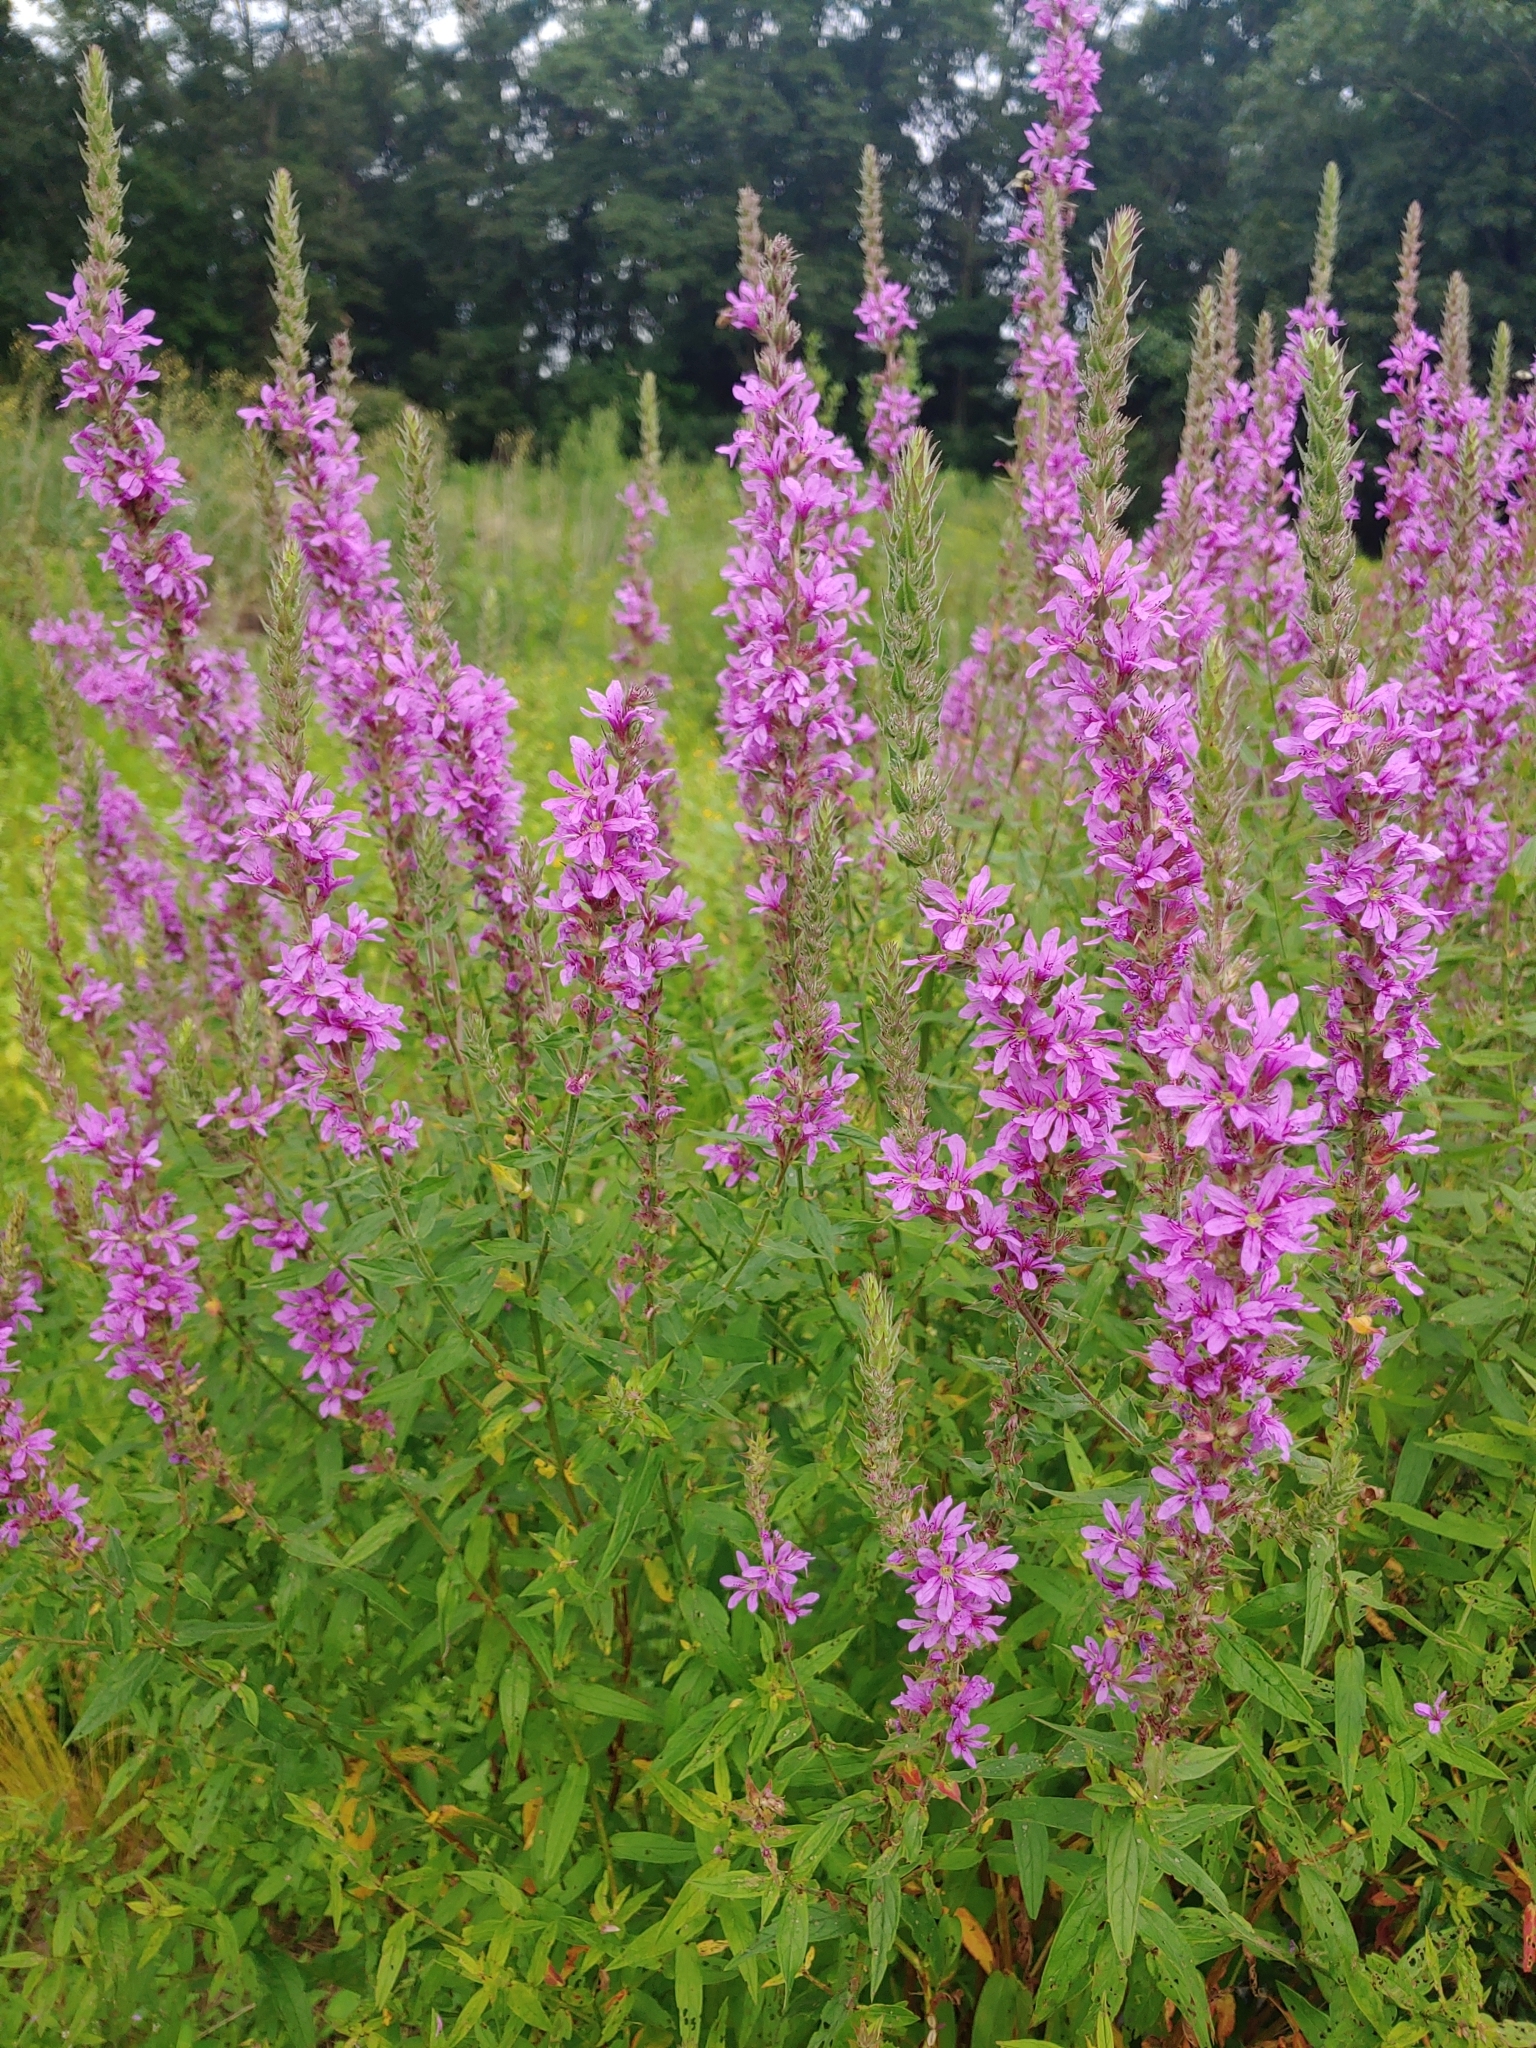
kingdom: Plantae
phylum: Tracheophyta
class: Magnoliopsida
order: Myrtales
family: Lythraceae
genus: Lythrum
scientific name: Lythrum salicaria
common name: Purple loosestrife
